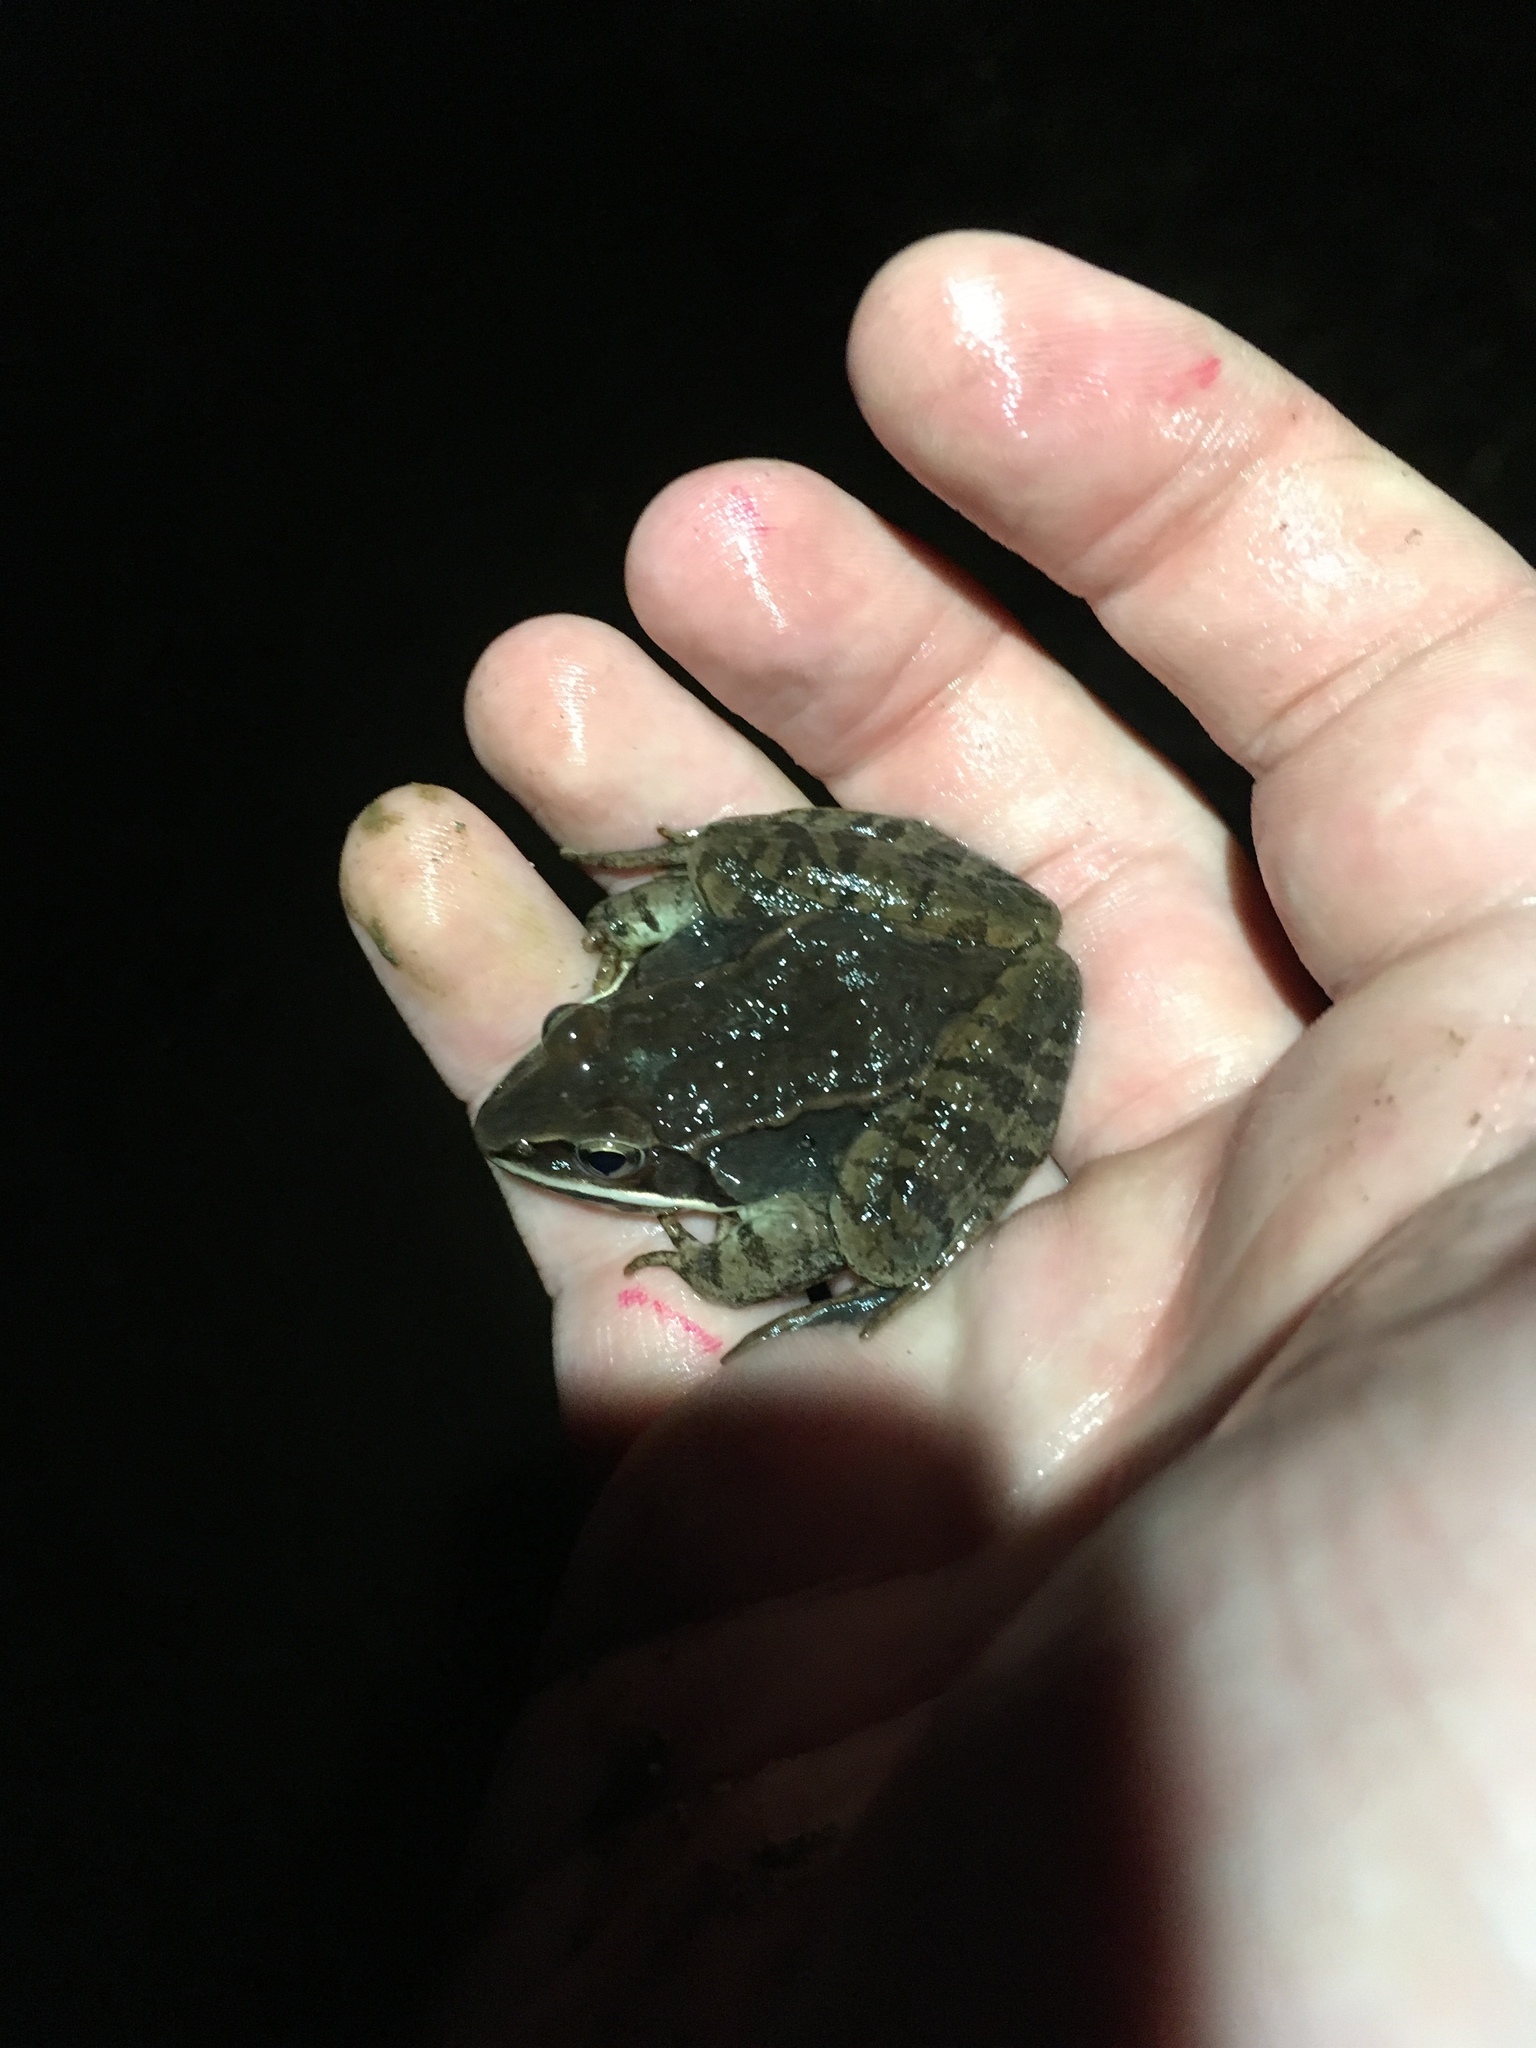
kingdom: Animalia
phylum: Chordata
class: Amphibia
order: Anura
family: Ranidae
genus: Lithobates
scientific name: Lithobates sylvaticus
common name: Wood frog
